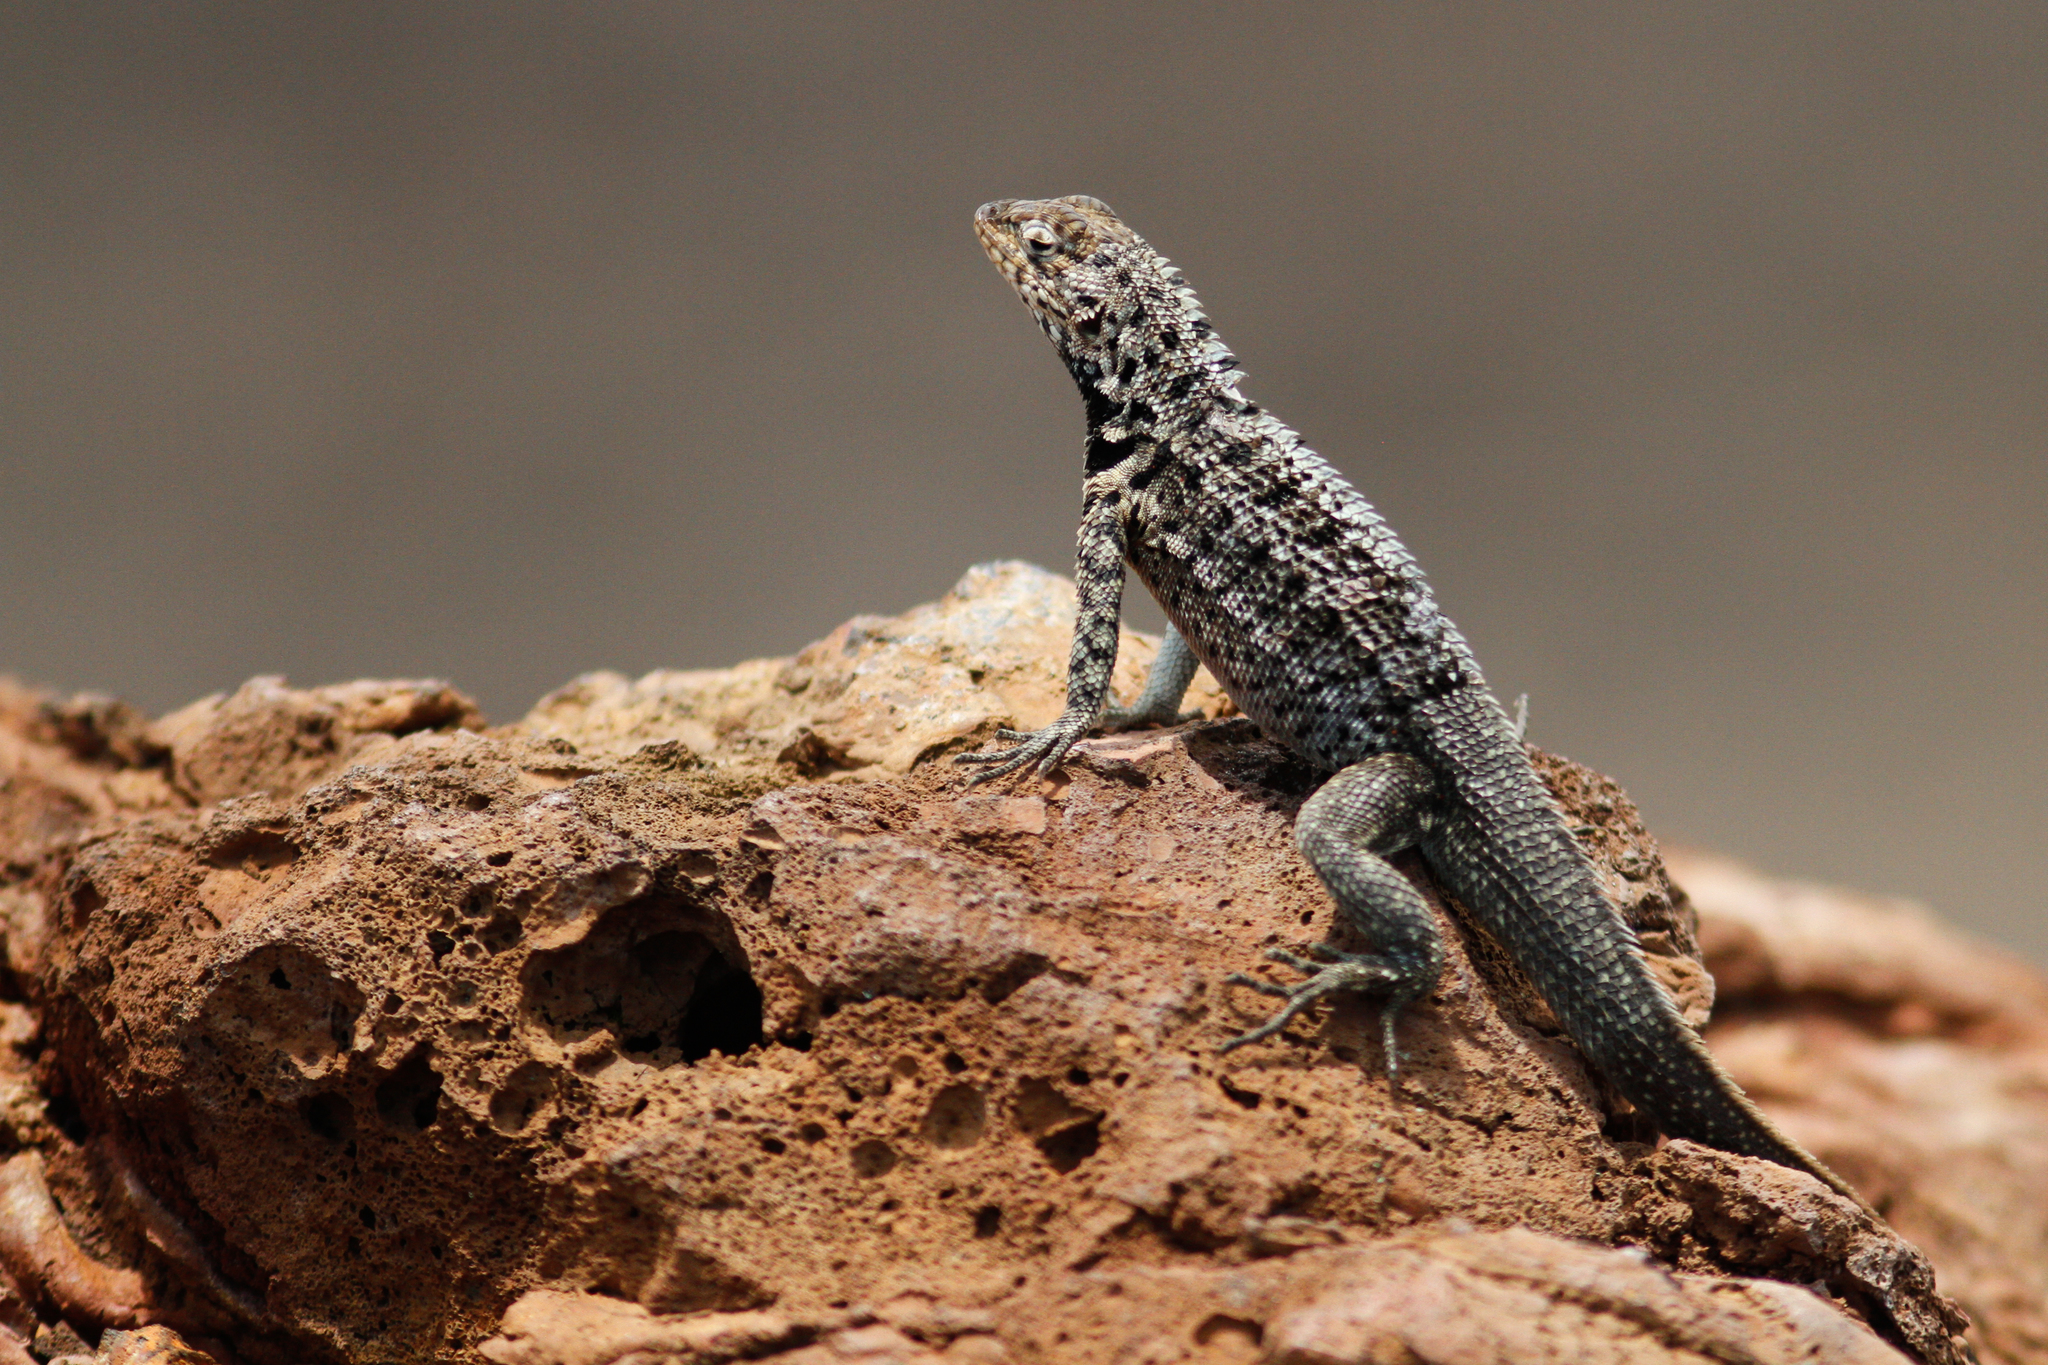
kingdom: Animalia
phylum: Chordata
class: Squamata
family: Tropiduridae
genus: Microlophus
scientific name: Microlophus albemarlensis
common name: Galapagos lava lizard
